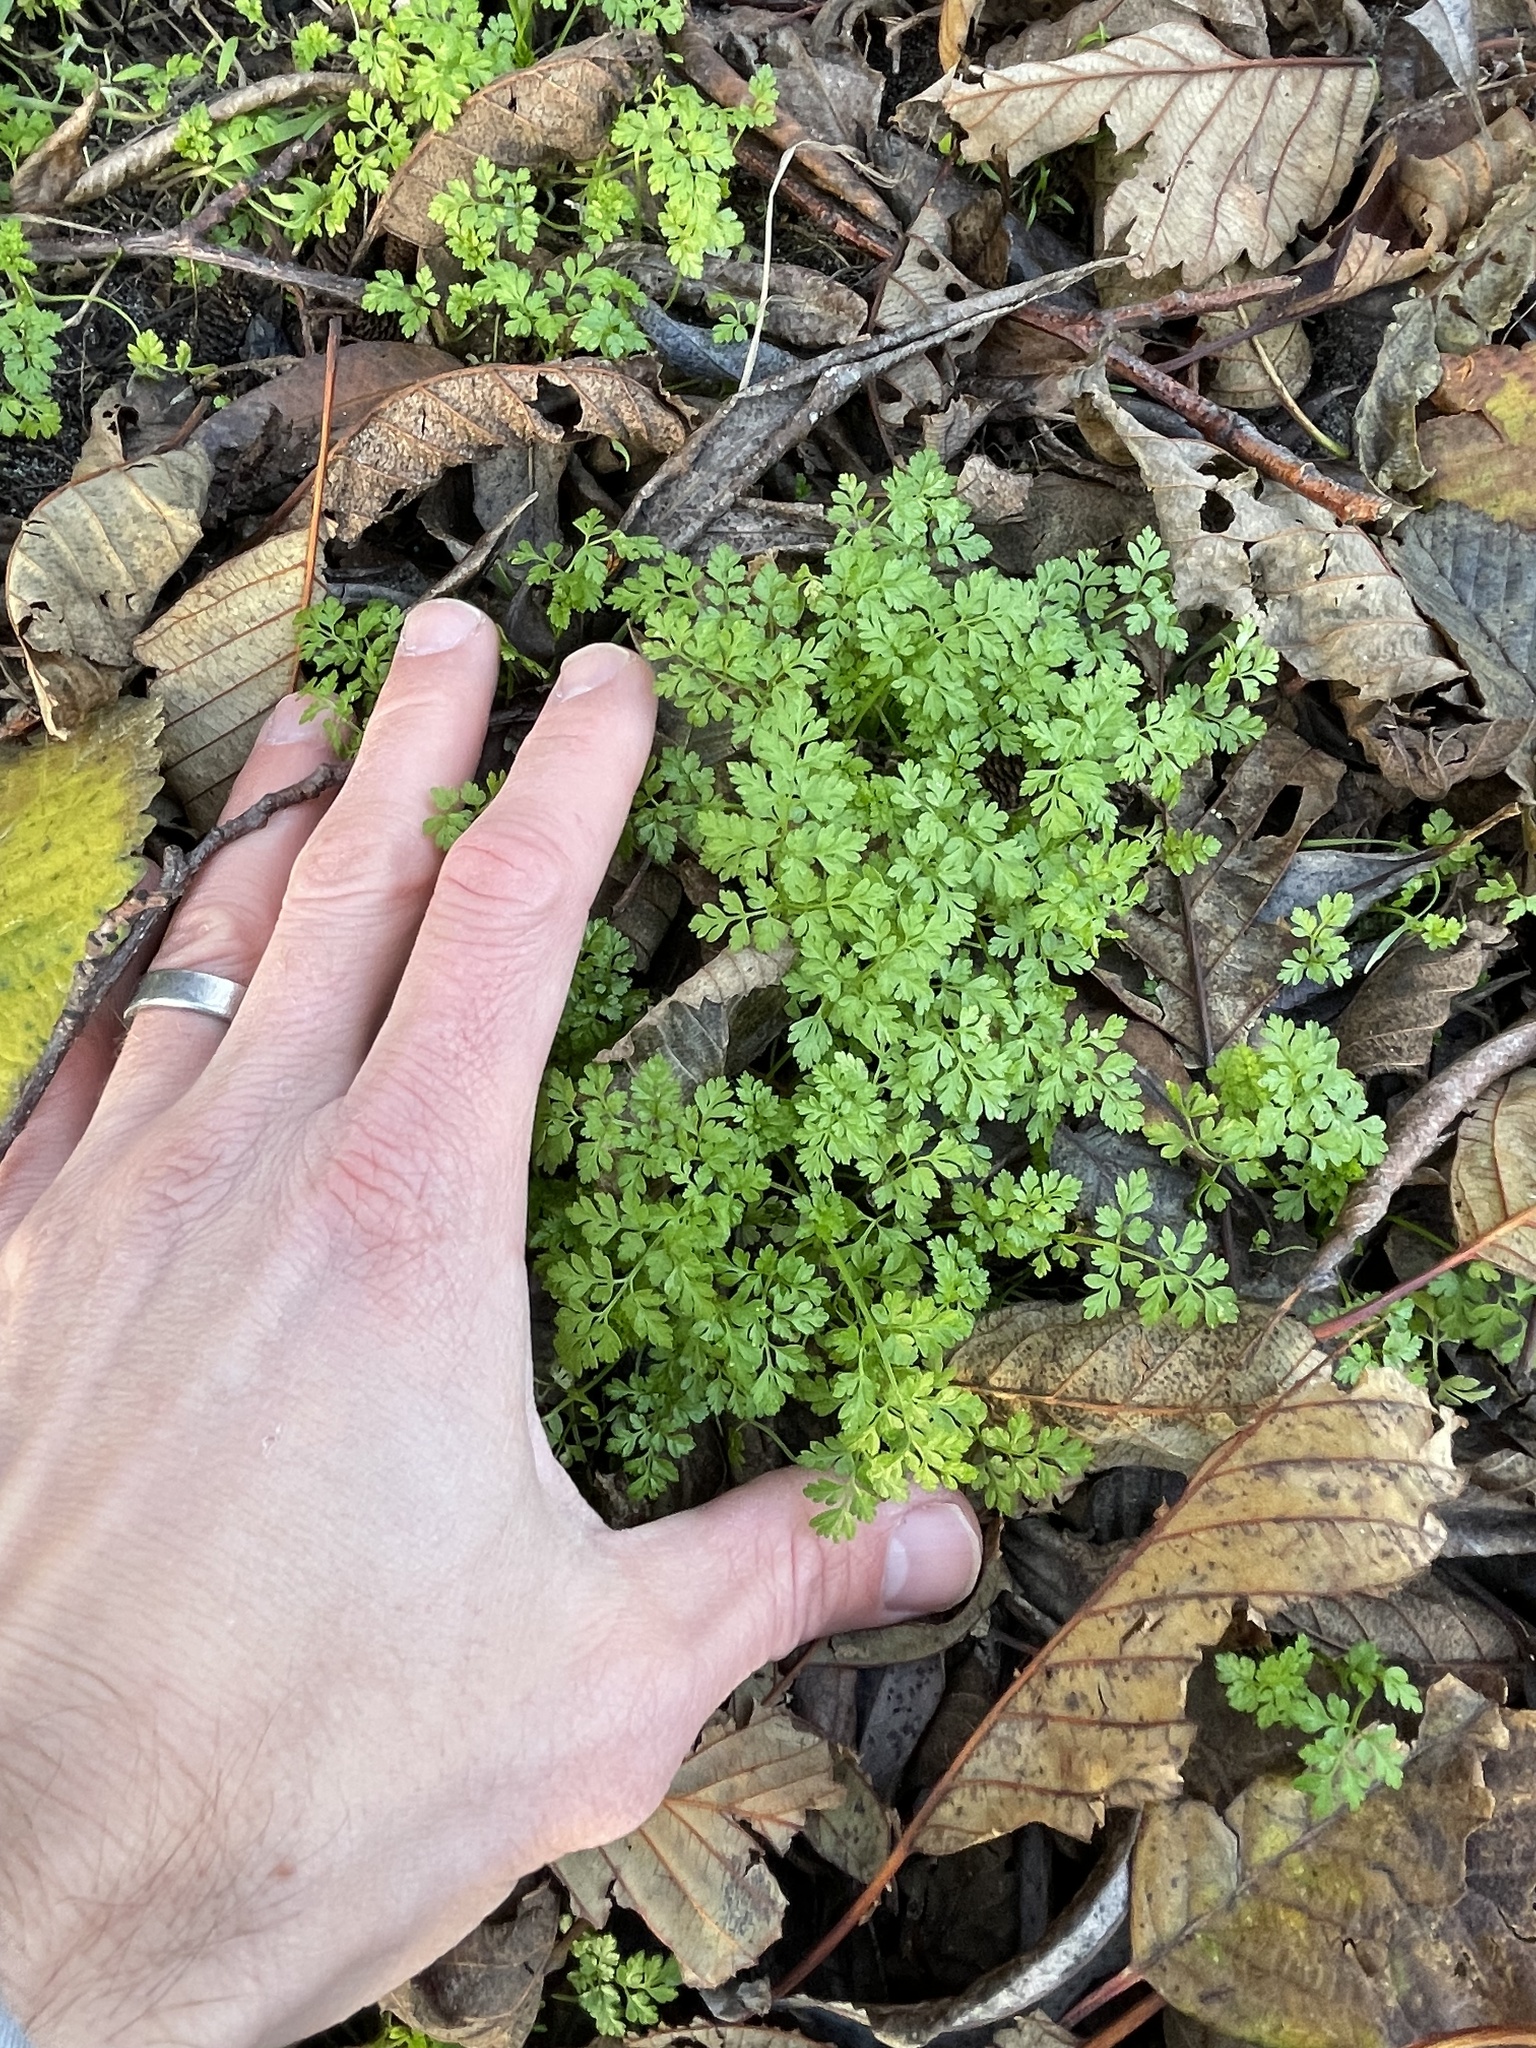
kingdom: Plantae
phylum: Tracheophyta
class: Magnoliopsida
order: Apiales
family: Apiaceae
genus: Anthriscus
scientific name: Anthriscus caucalis
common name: Bur chervil
